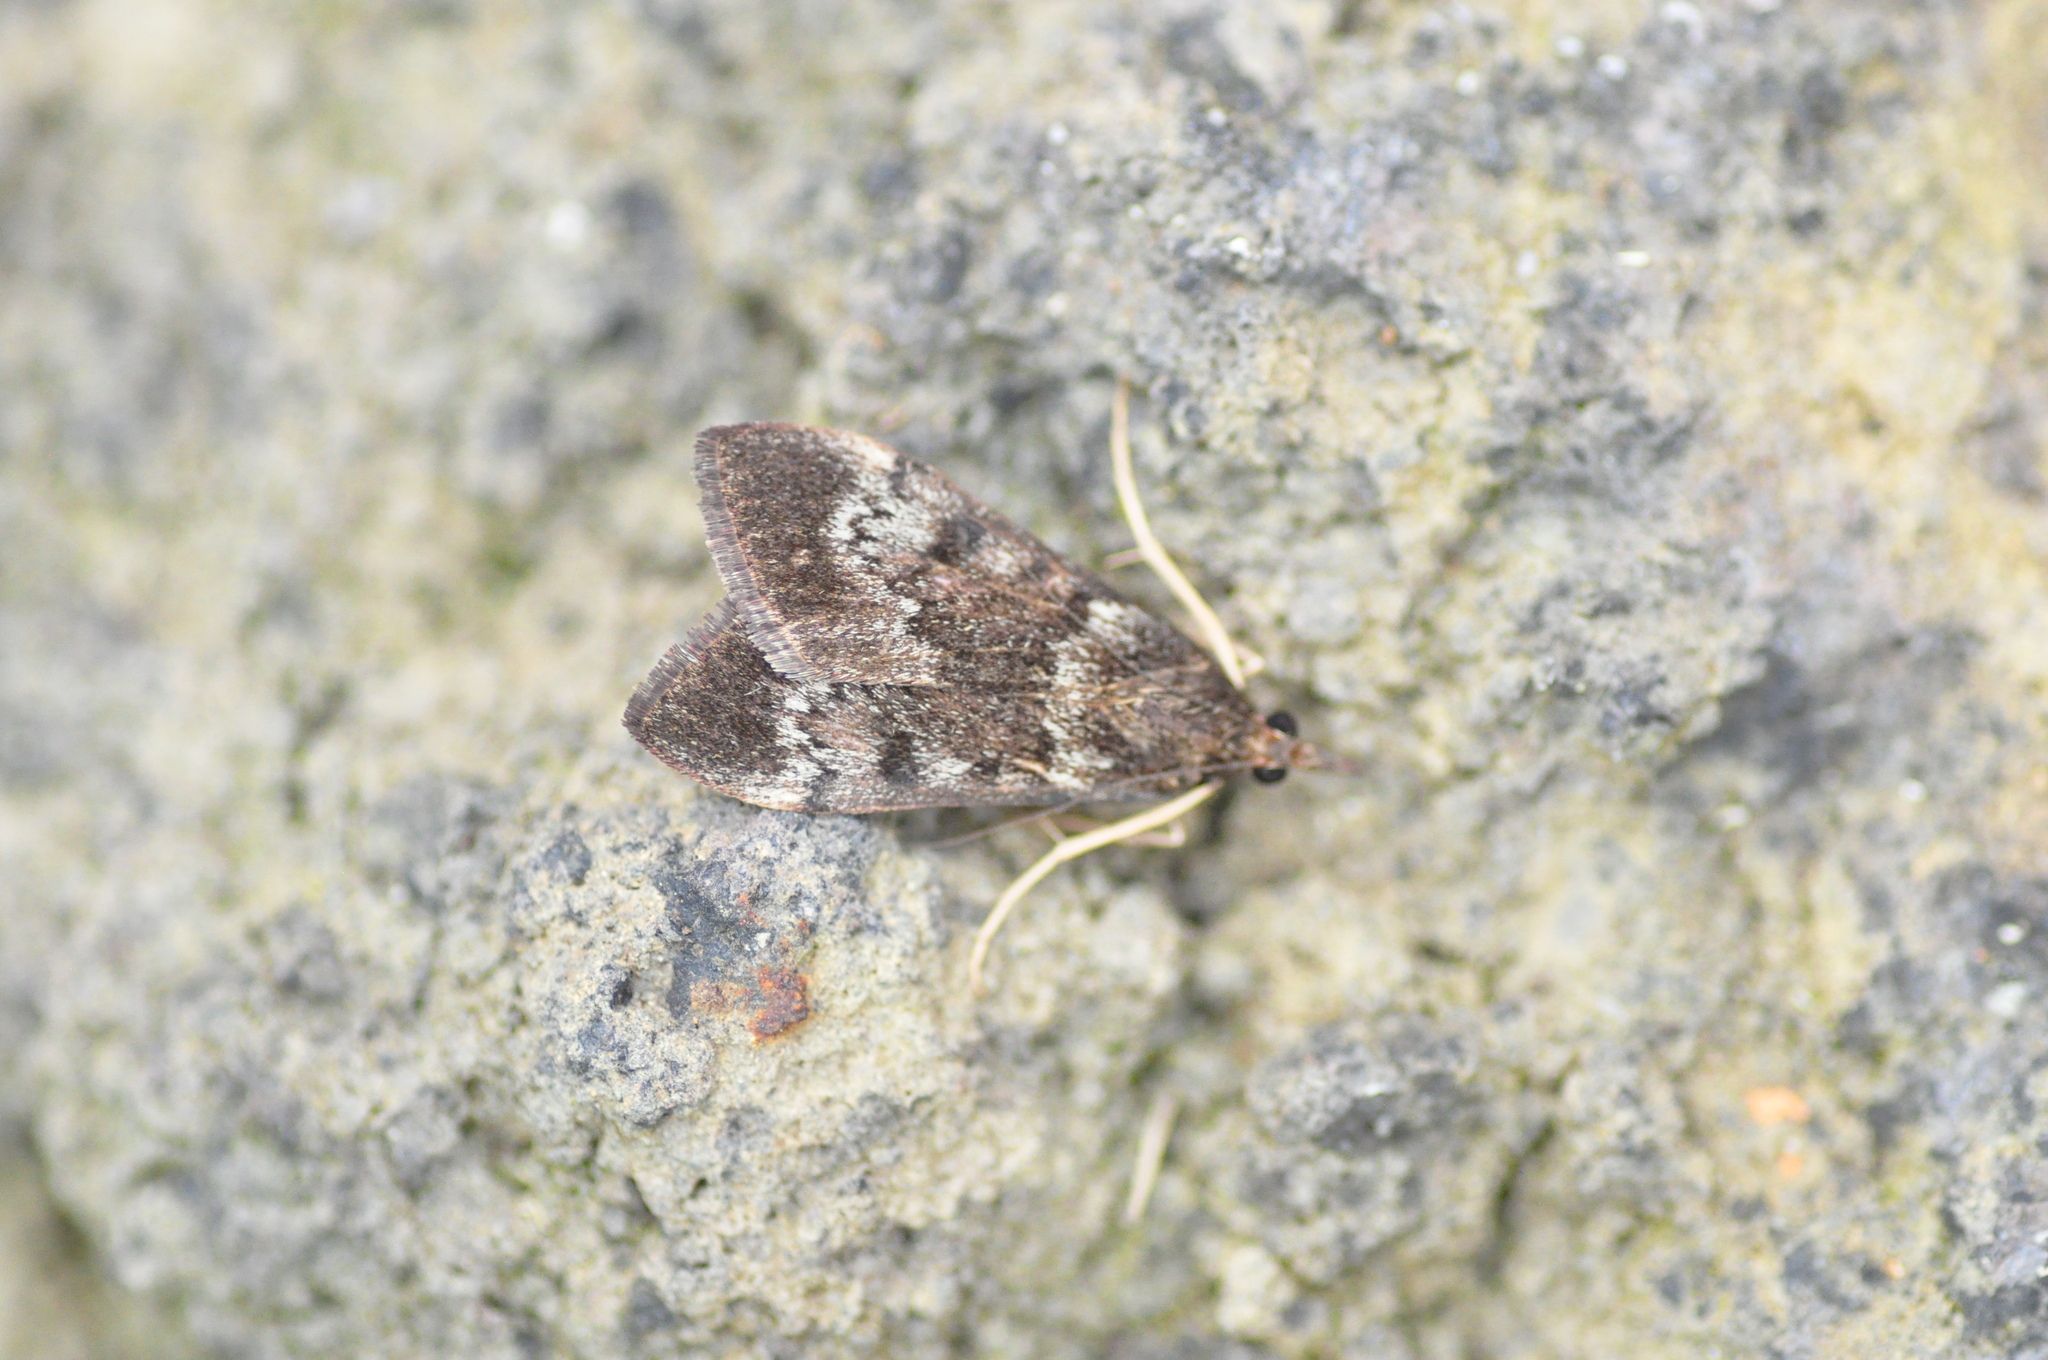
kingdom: Animalia
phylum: Arthropoda
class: Insecta
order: Lepidoptera
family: Crambidae
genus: Uresiphita
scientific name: Uresiphita gilvata
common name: Yellow-underwing pearl
